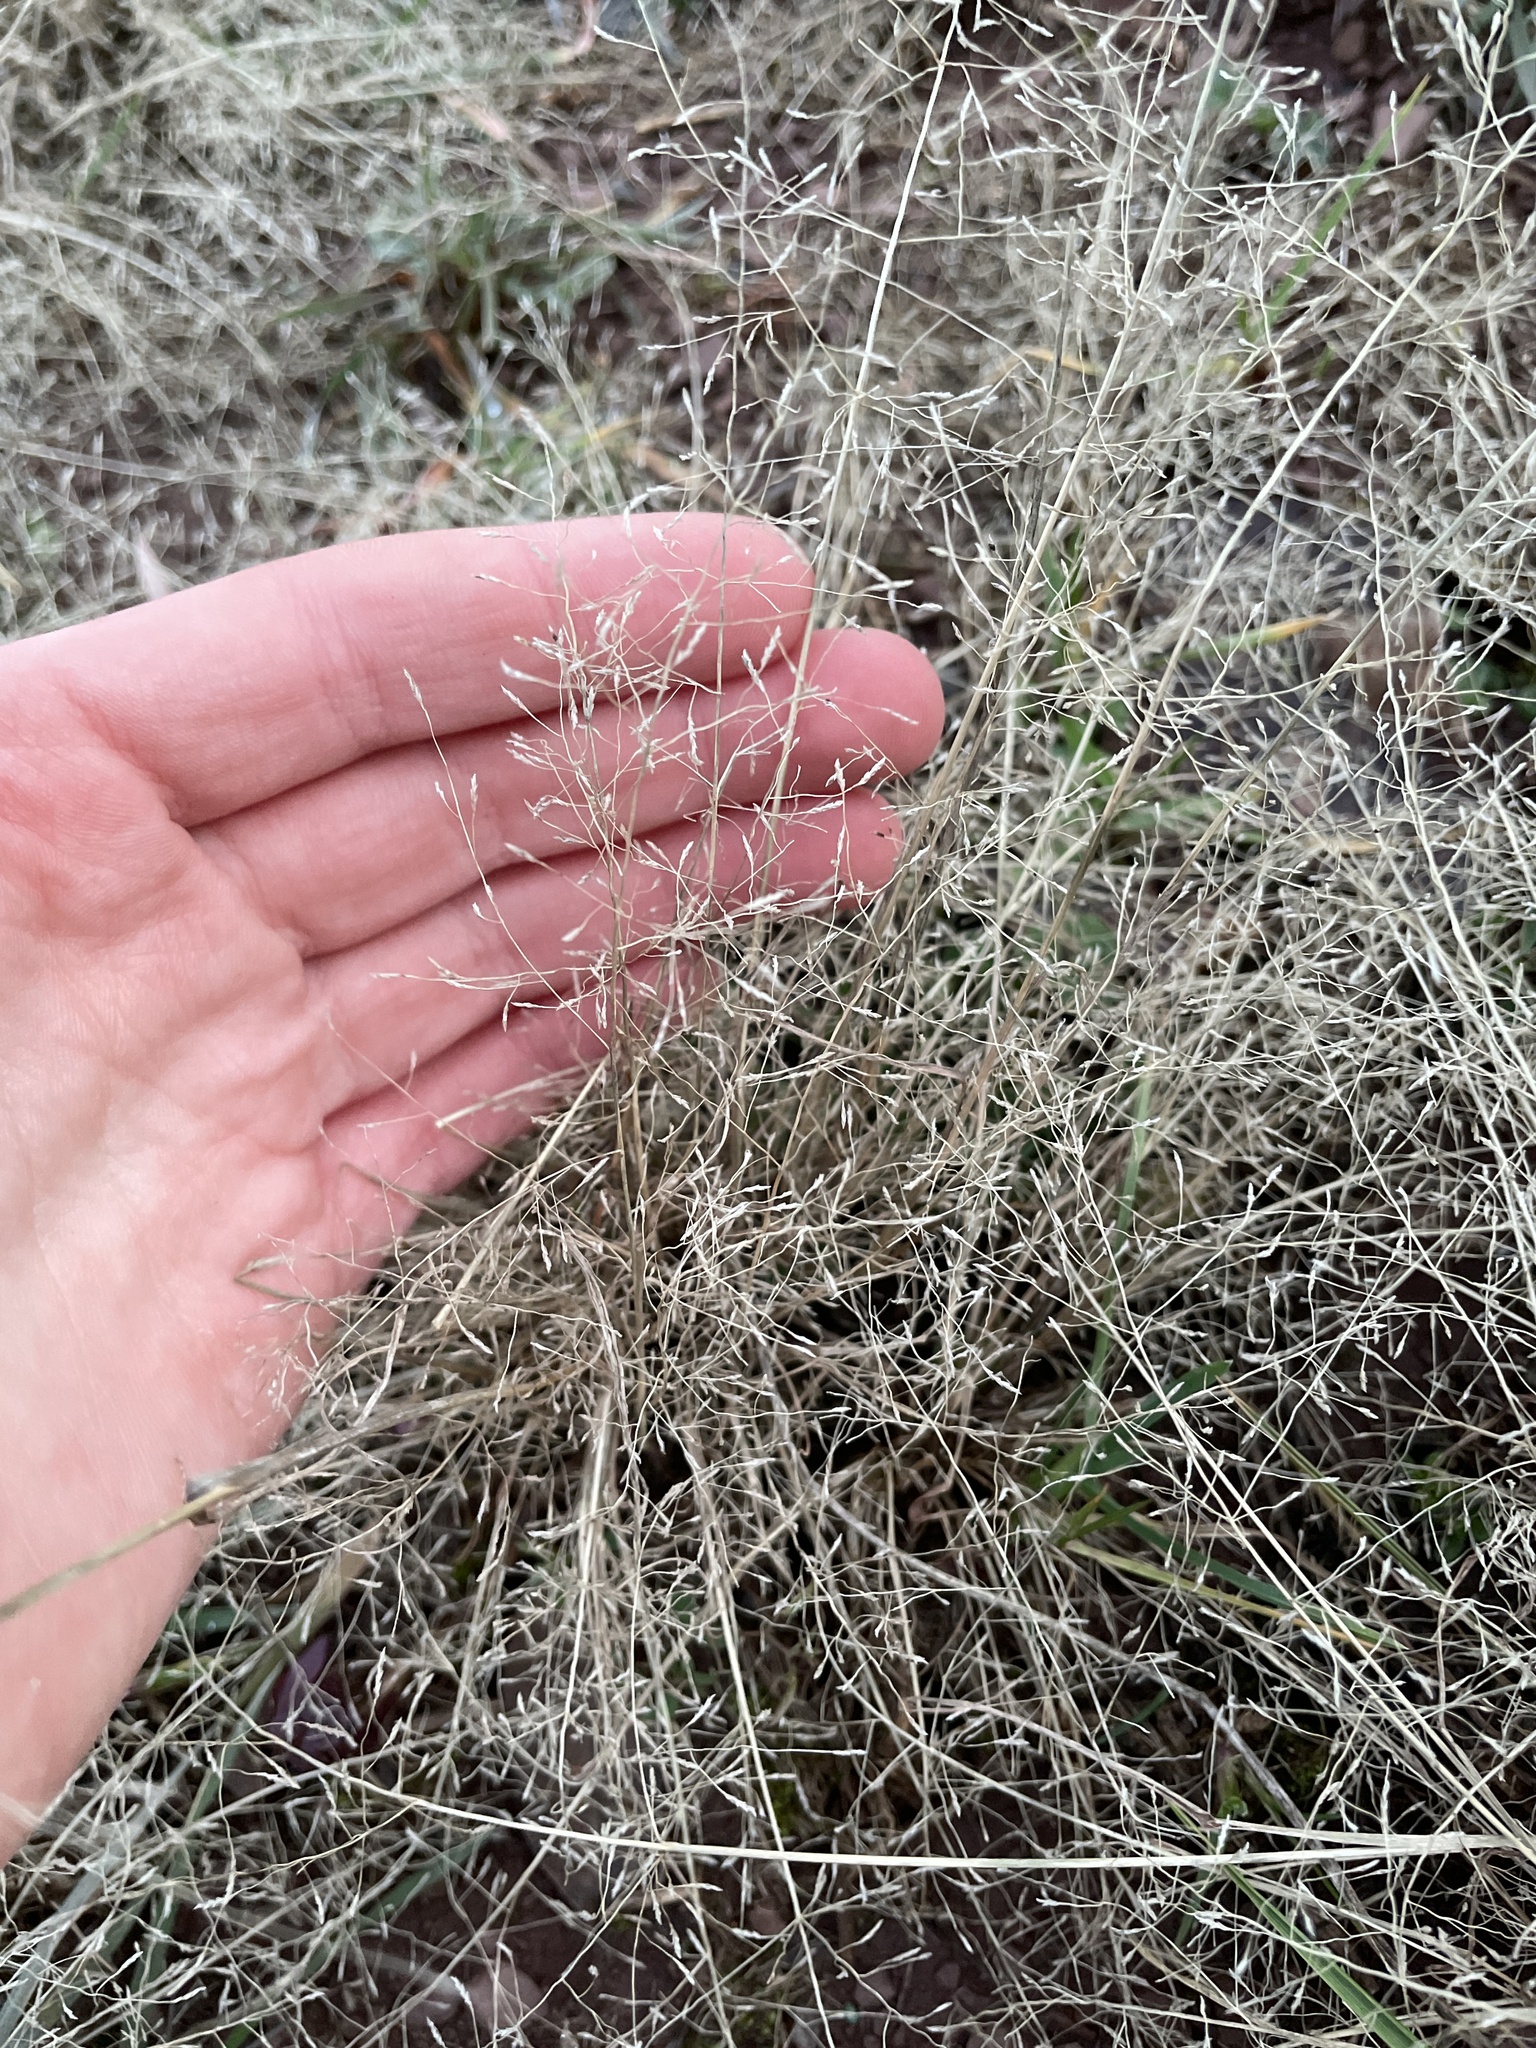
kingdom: Plantae
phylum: Tracheophyta
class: Liliopsida
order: Poales
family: Poaceae
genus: Eragrostis
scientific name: Eragrostis
